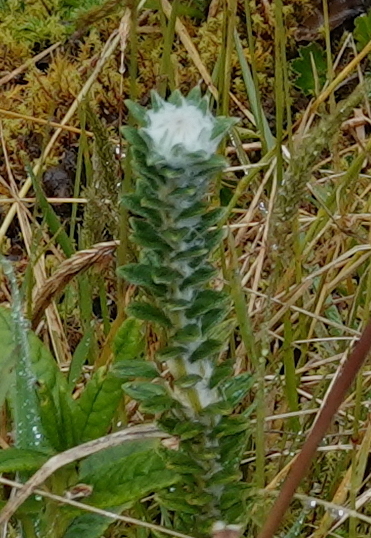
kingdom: Plantae
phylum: Tracheophyta
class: Magnoliopsida
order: Asterales
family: Asteraceae
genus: Lasiocephalus
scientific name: Lasiocephalus ovatus
